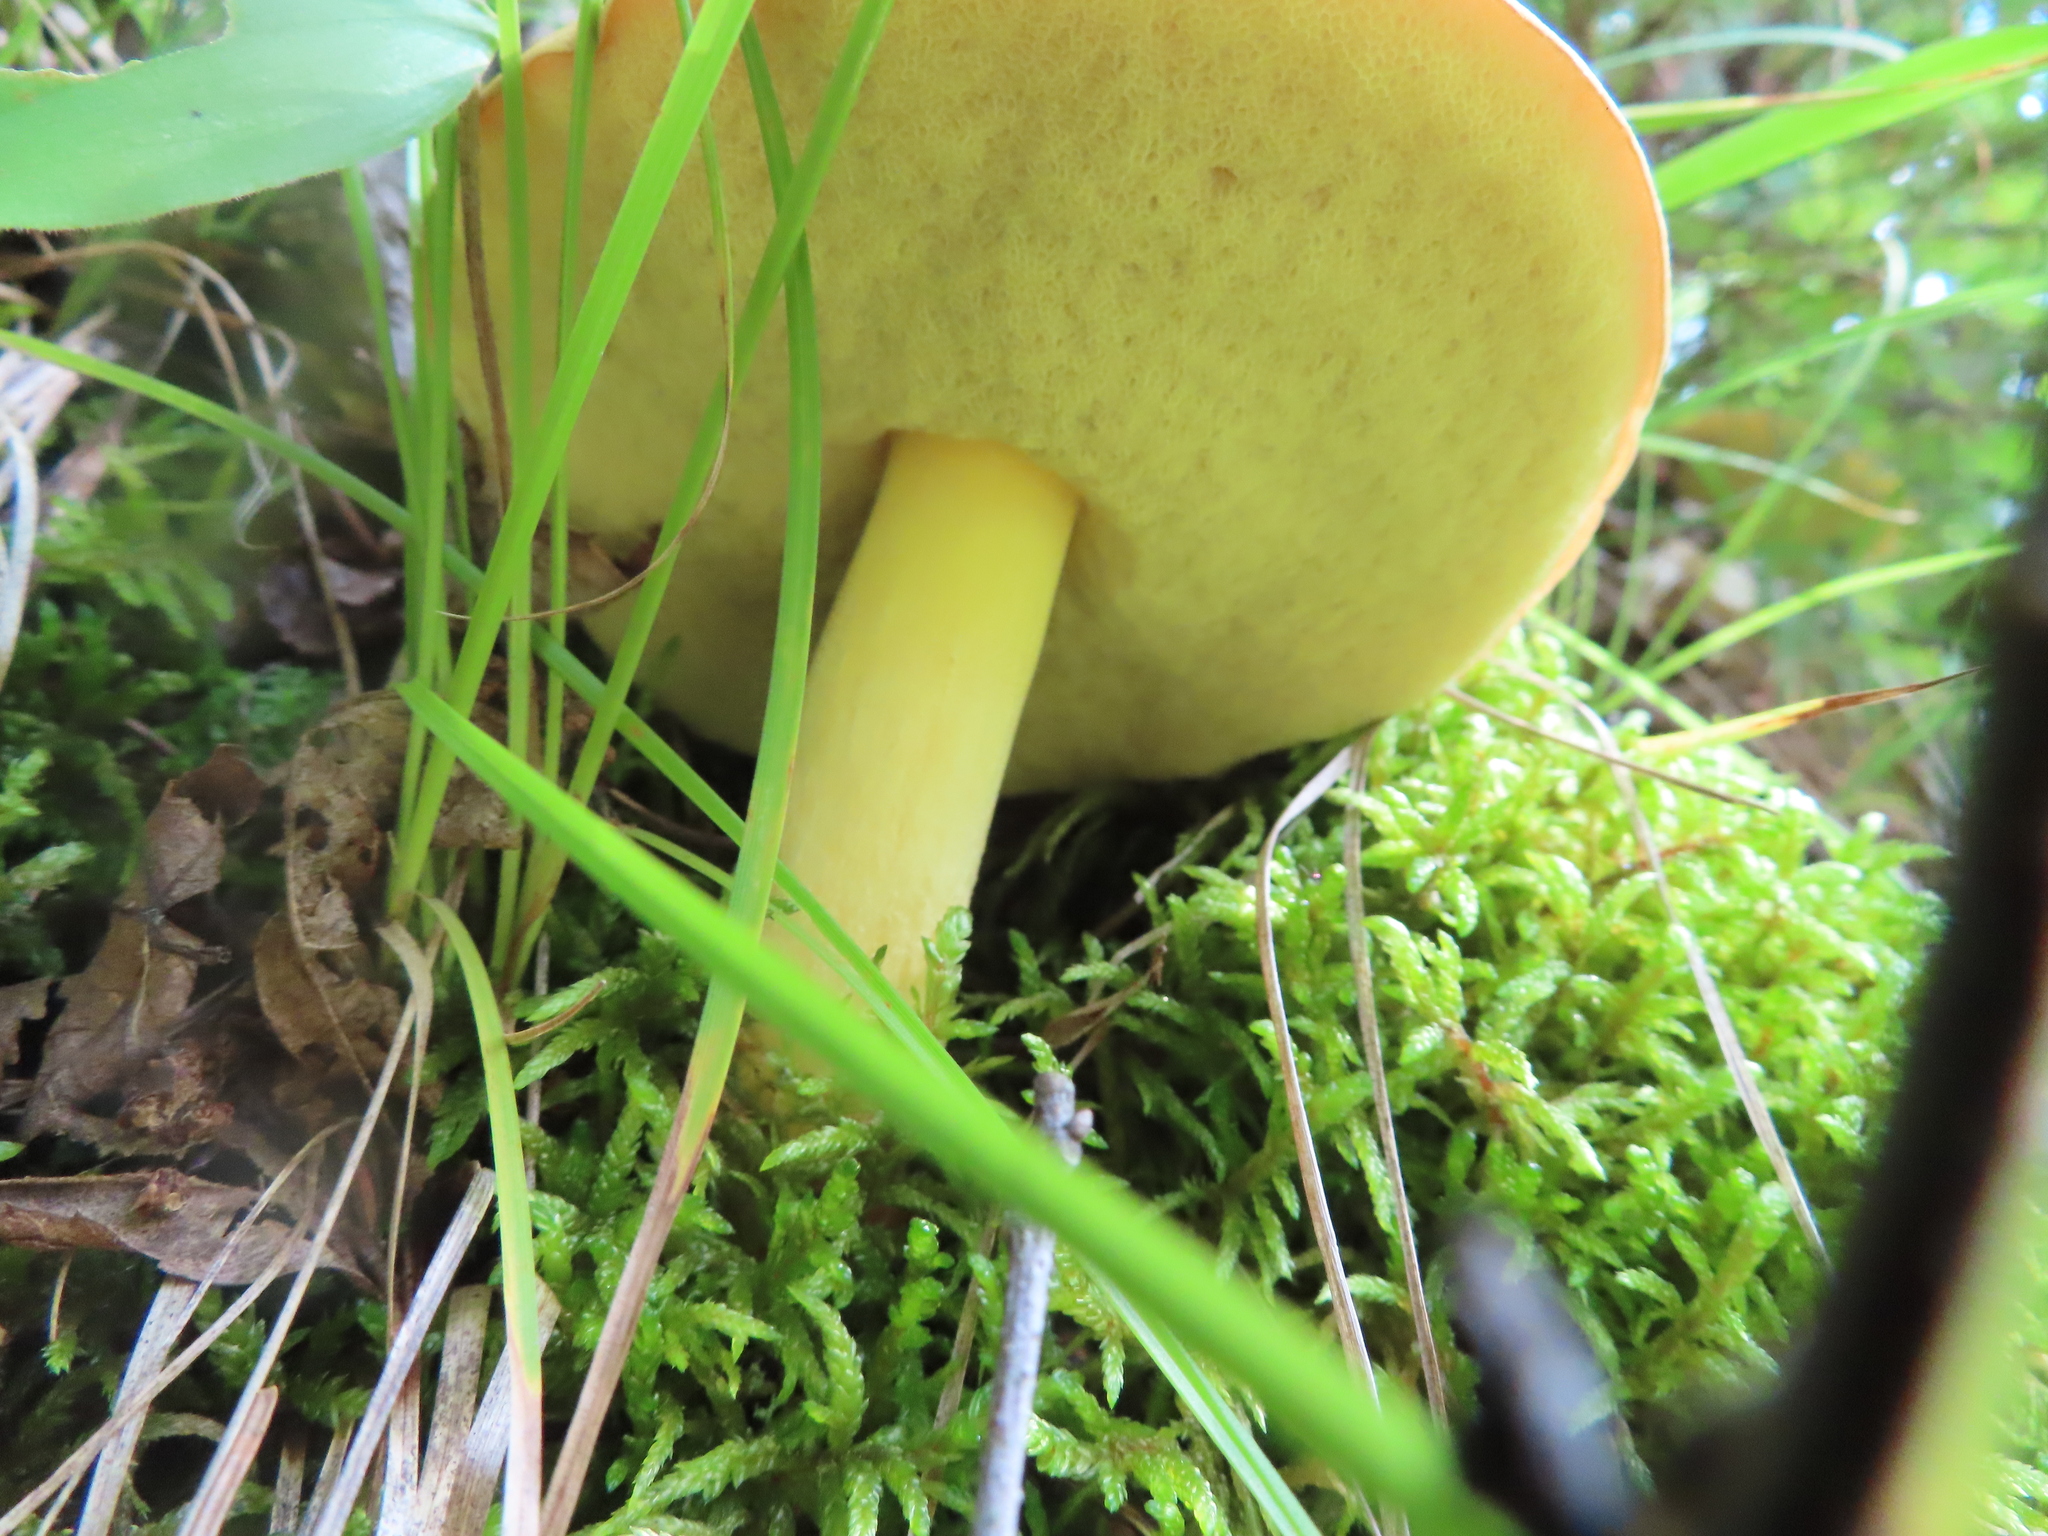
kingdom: Fungi
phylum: Basidiomycota
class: Agaricomycetes
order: Boletales
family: Boletaceae
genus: Hemileccinum
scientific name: Hemileccinum subglabripes
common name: Smoothish-stemmed bolete
